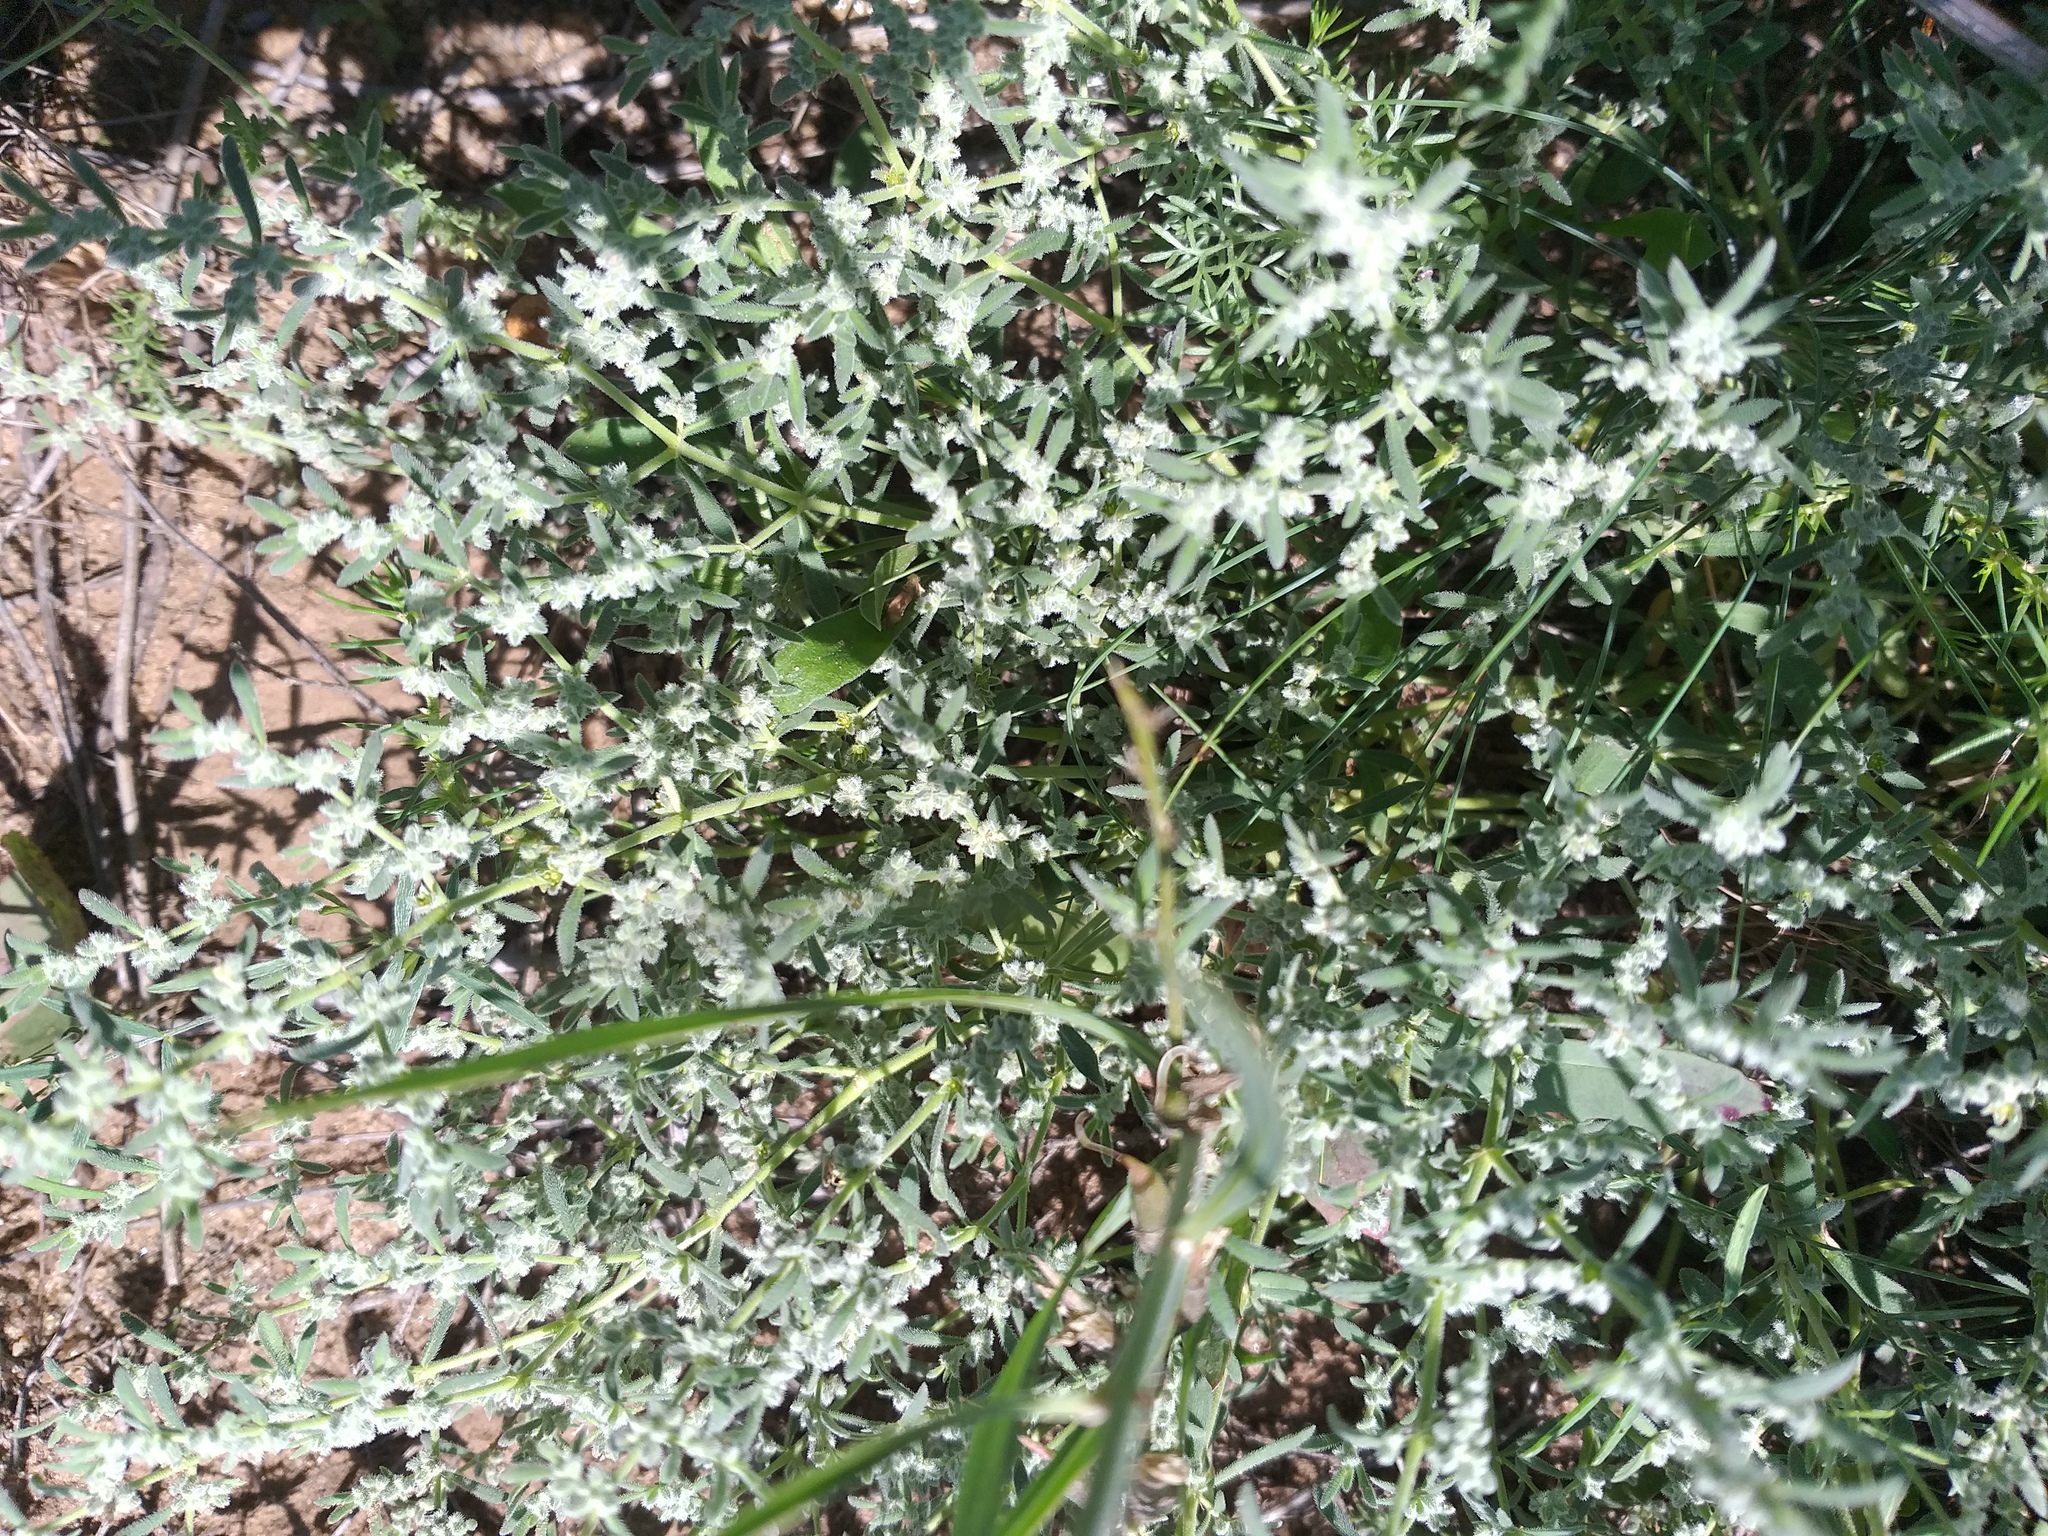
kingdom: Plantae
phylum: Tracheophyta
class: Magnoliopsida
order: Caryophyllales
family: Caryophyllaceae
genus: Herniaria
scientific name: Herniaria incana
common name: Gray rupturewort
